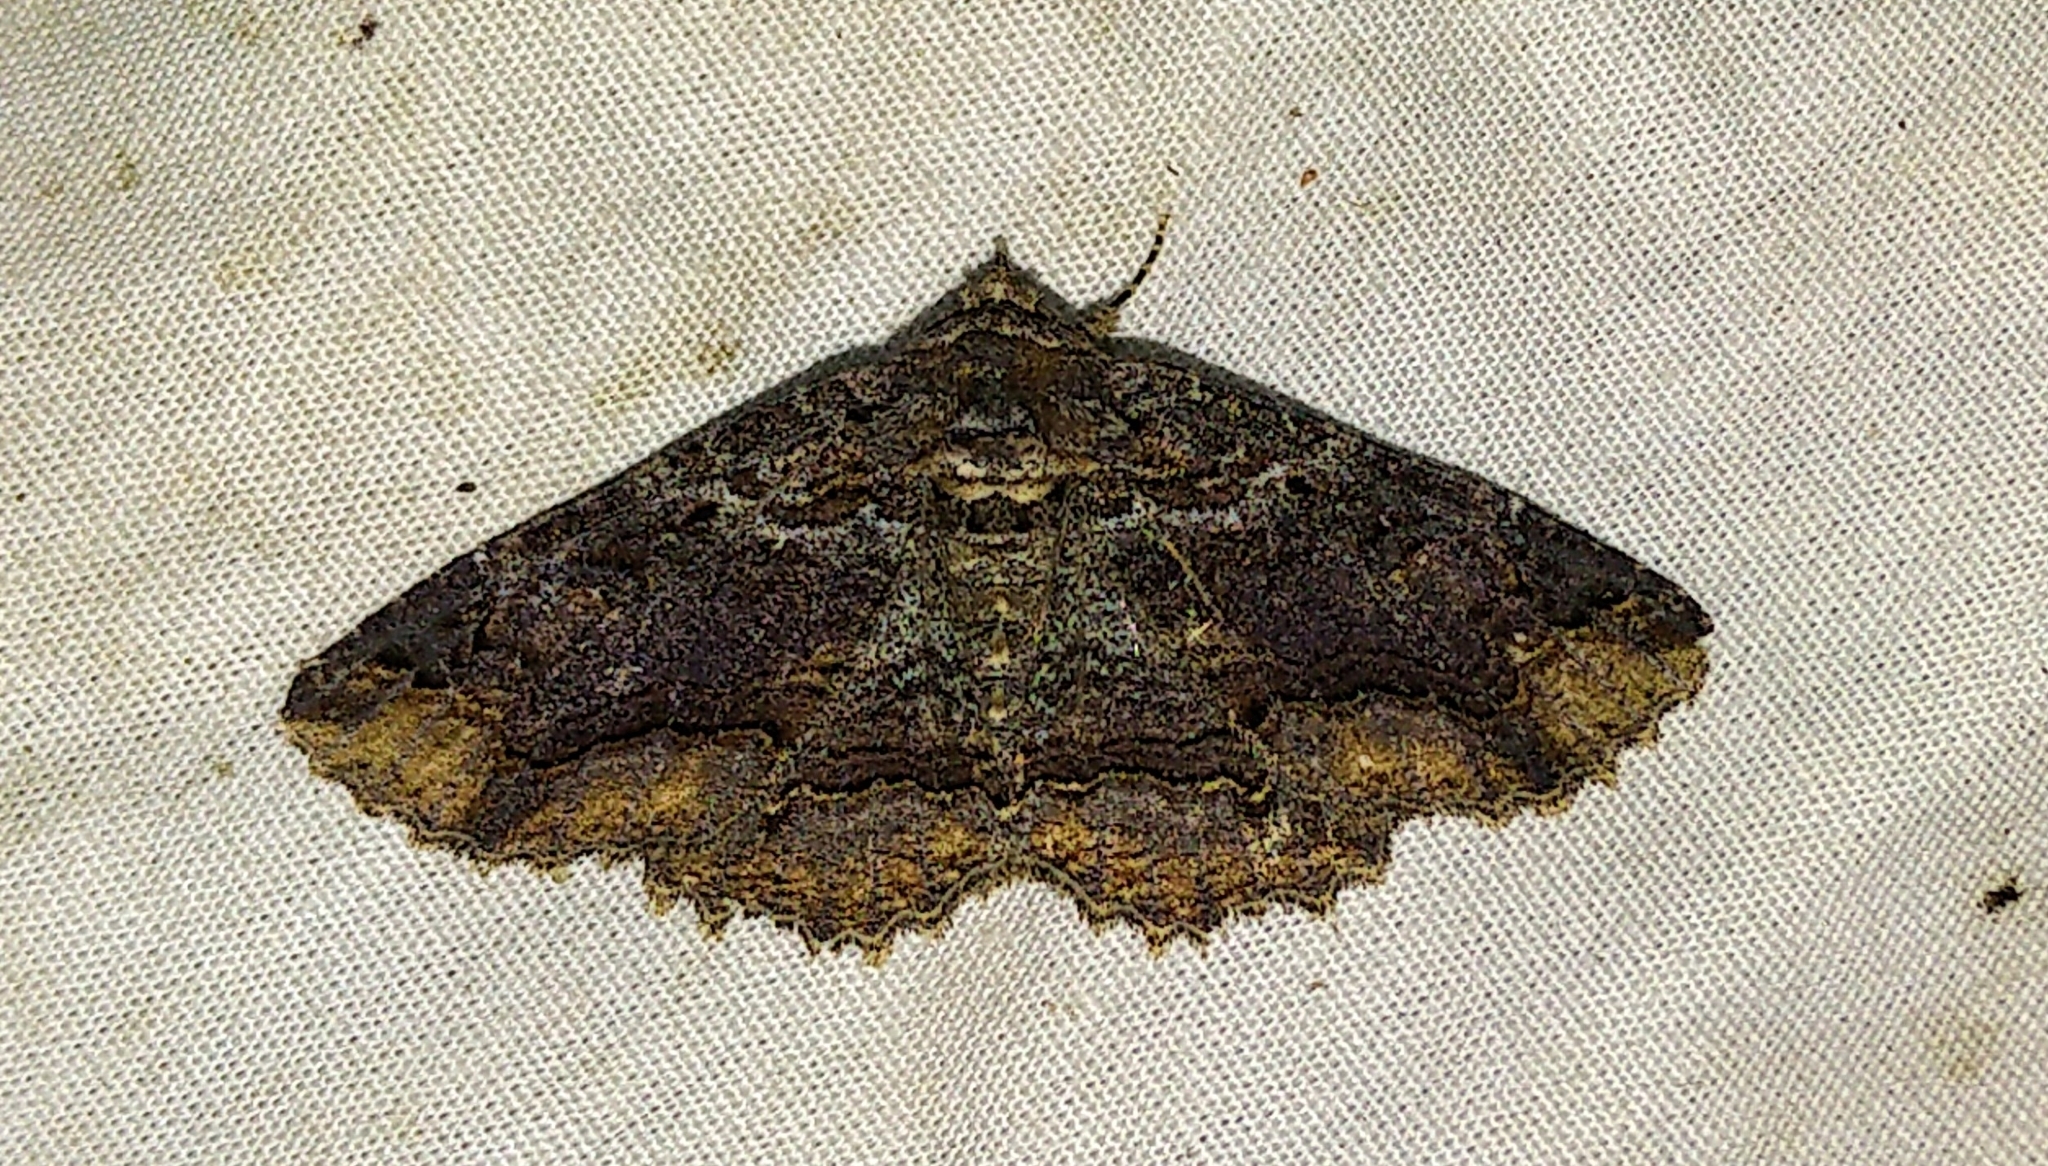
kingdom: Animalia
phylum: Arthropoda
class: Insecta
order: Lepidoptera
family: Erebidae
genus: Zale
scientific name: Zale minerea
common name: Colorful zale moth
